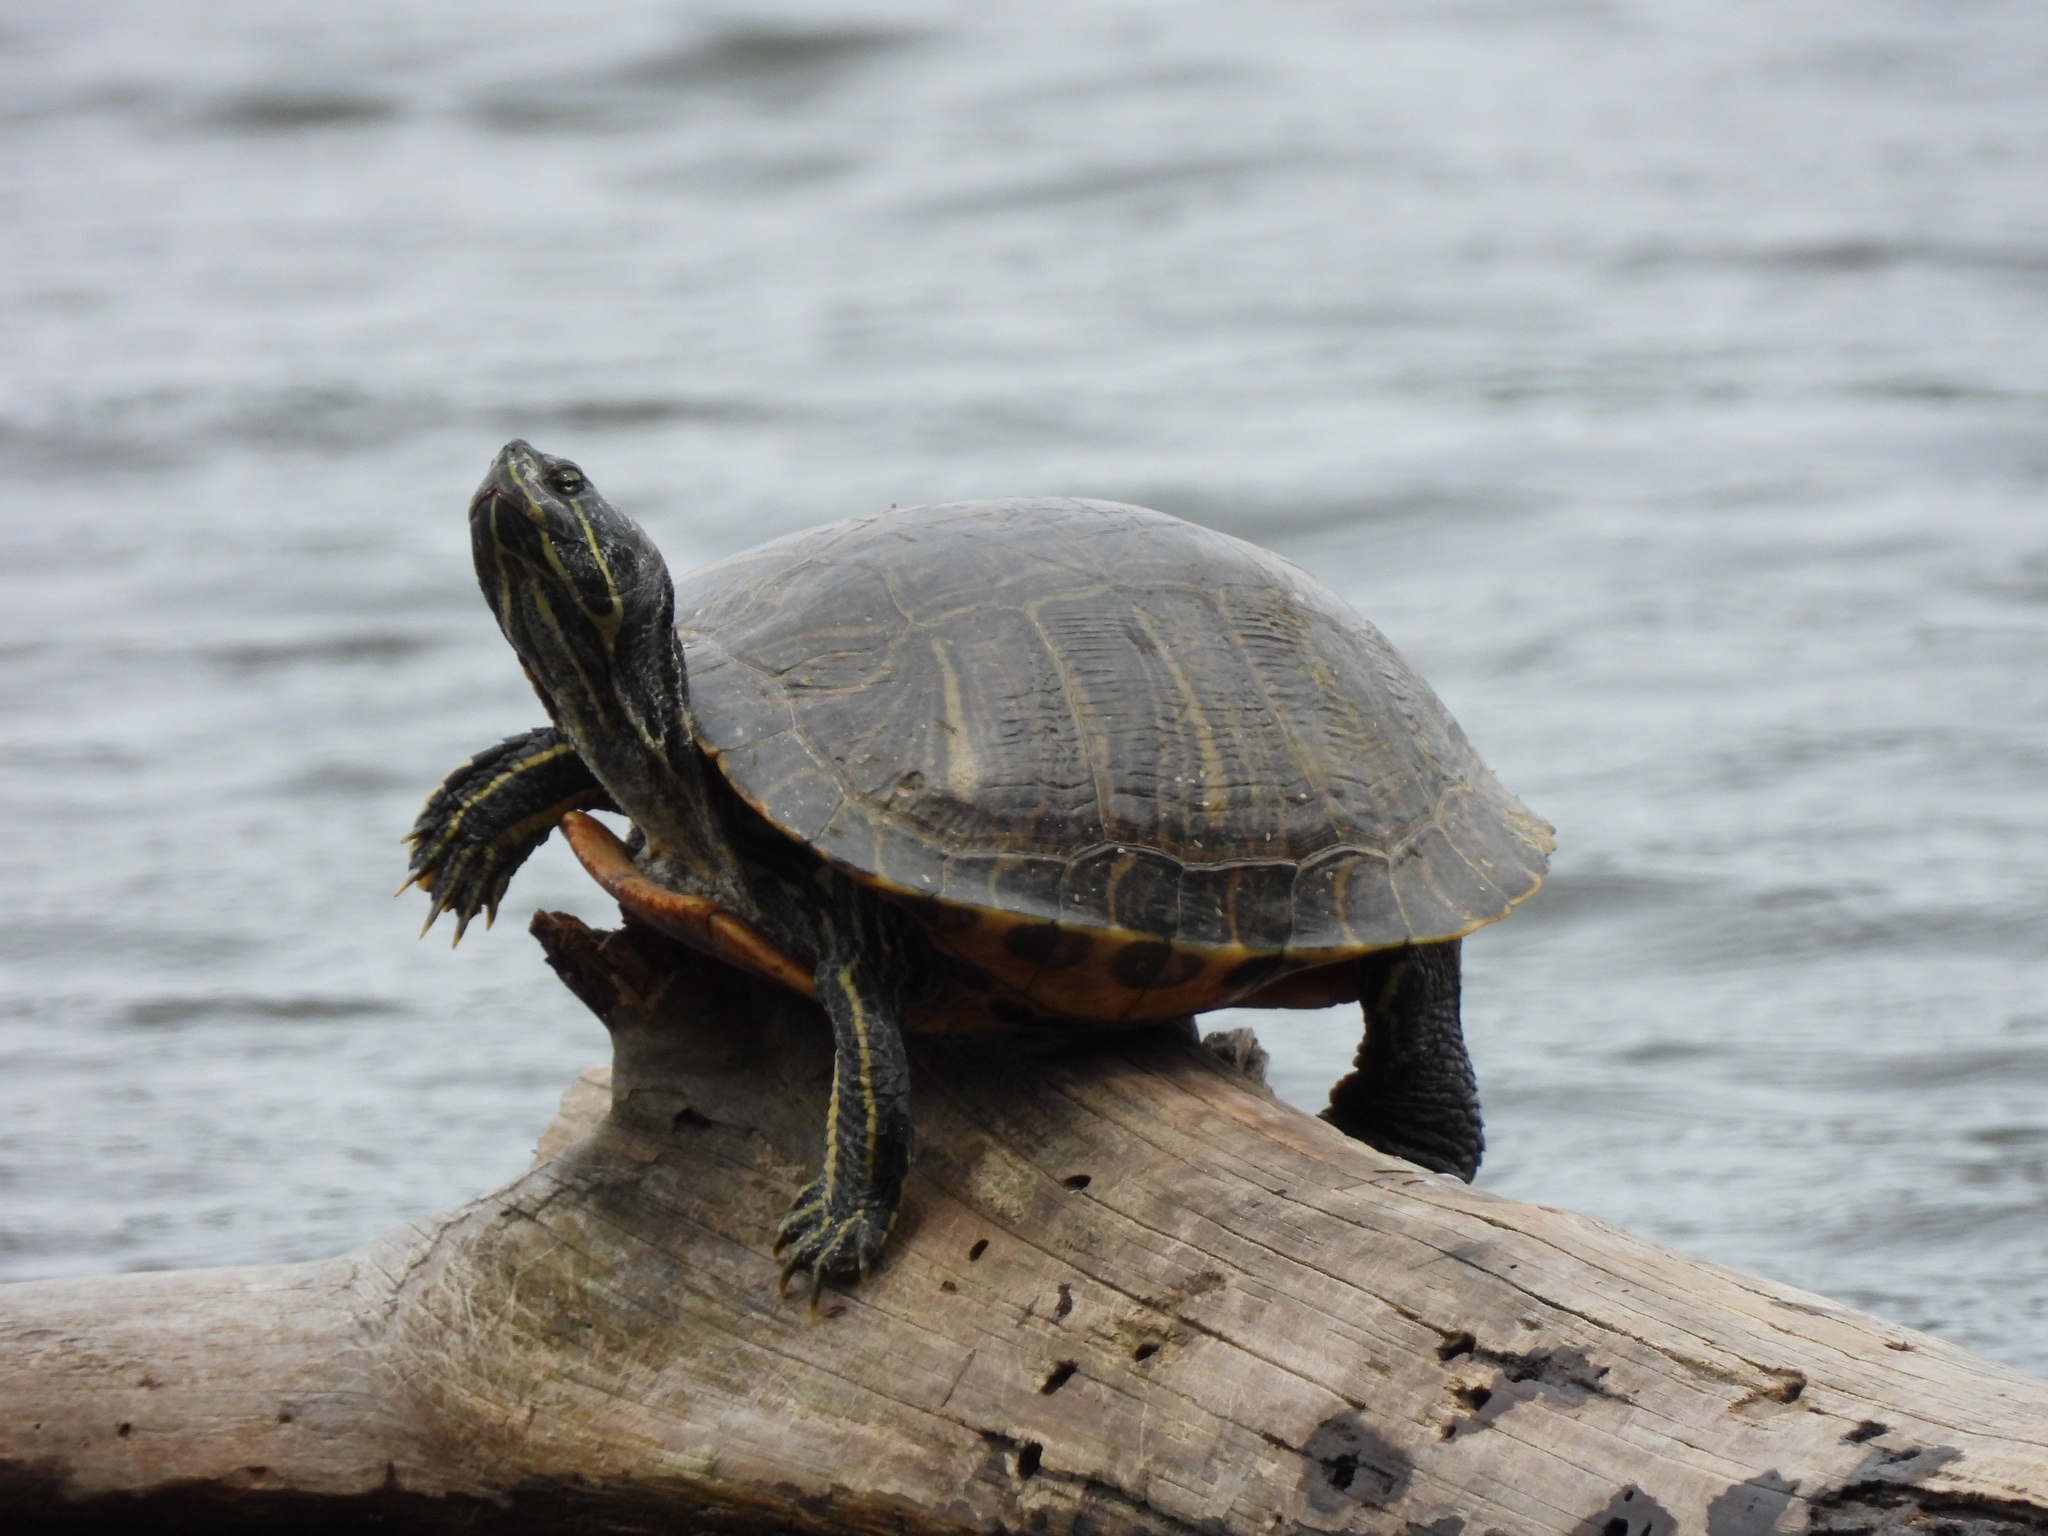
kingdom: Animalia
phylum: Chordata
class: Testudines
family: Emydidae
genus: Trachemys
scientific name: Trachemys scripta
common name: Slider
